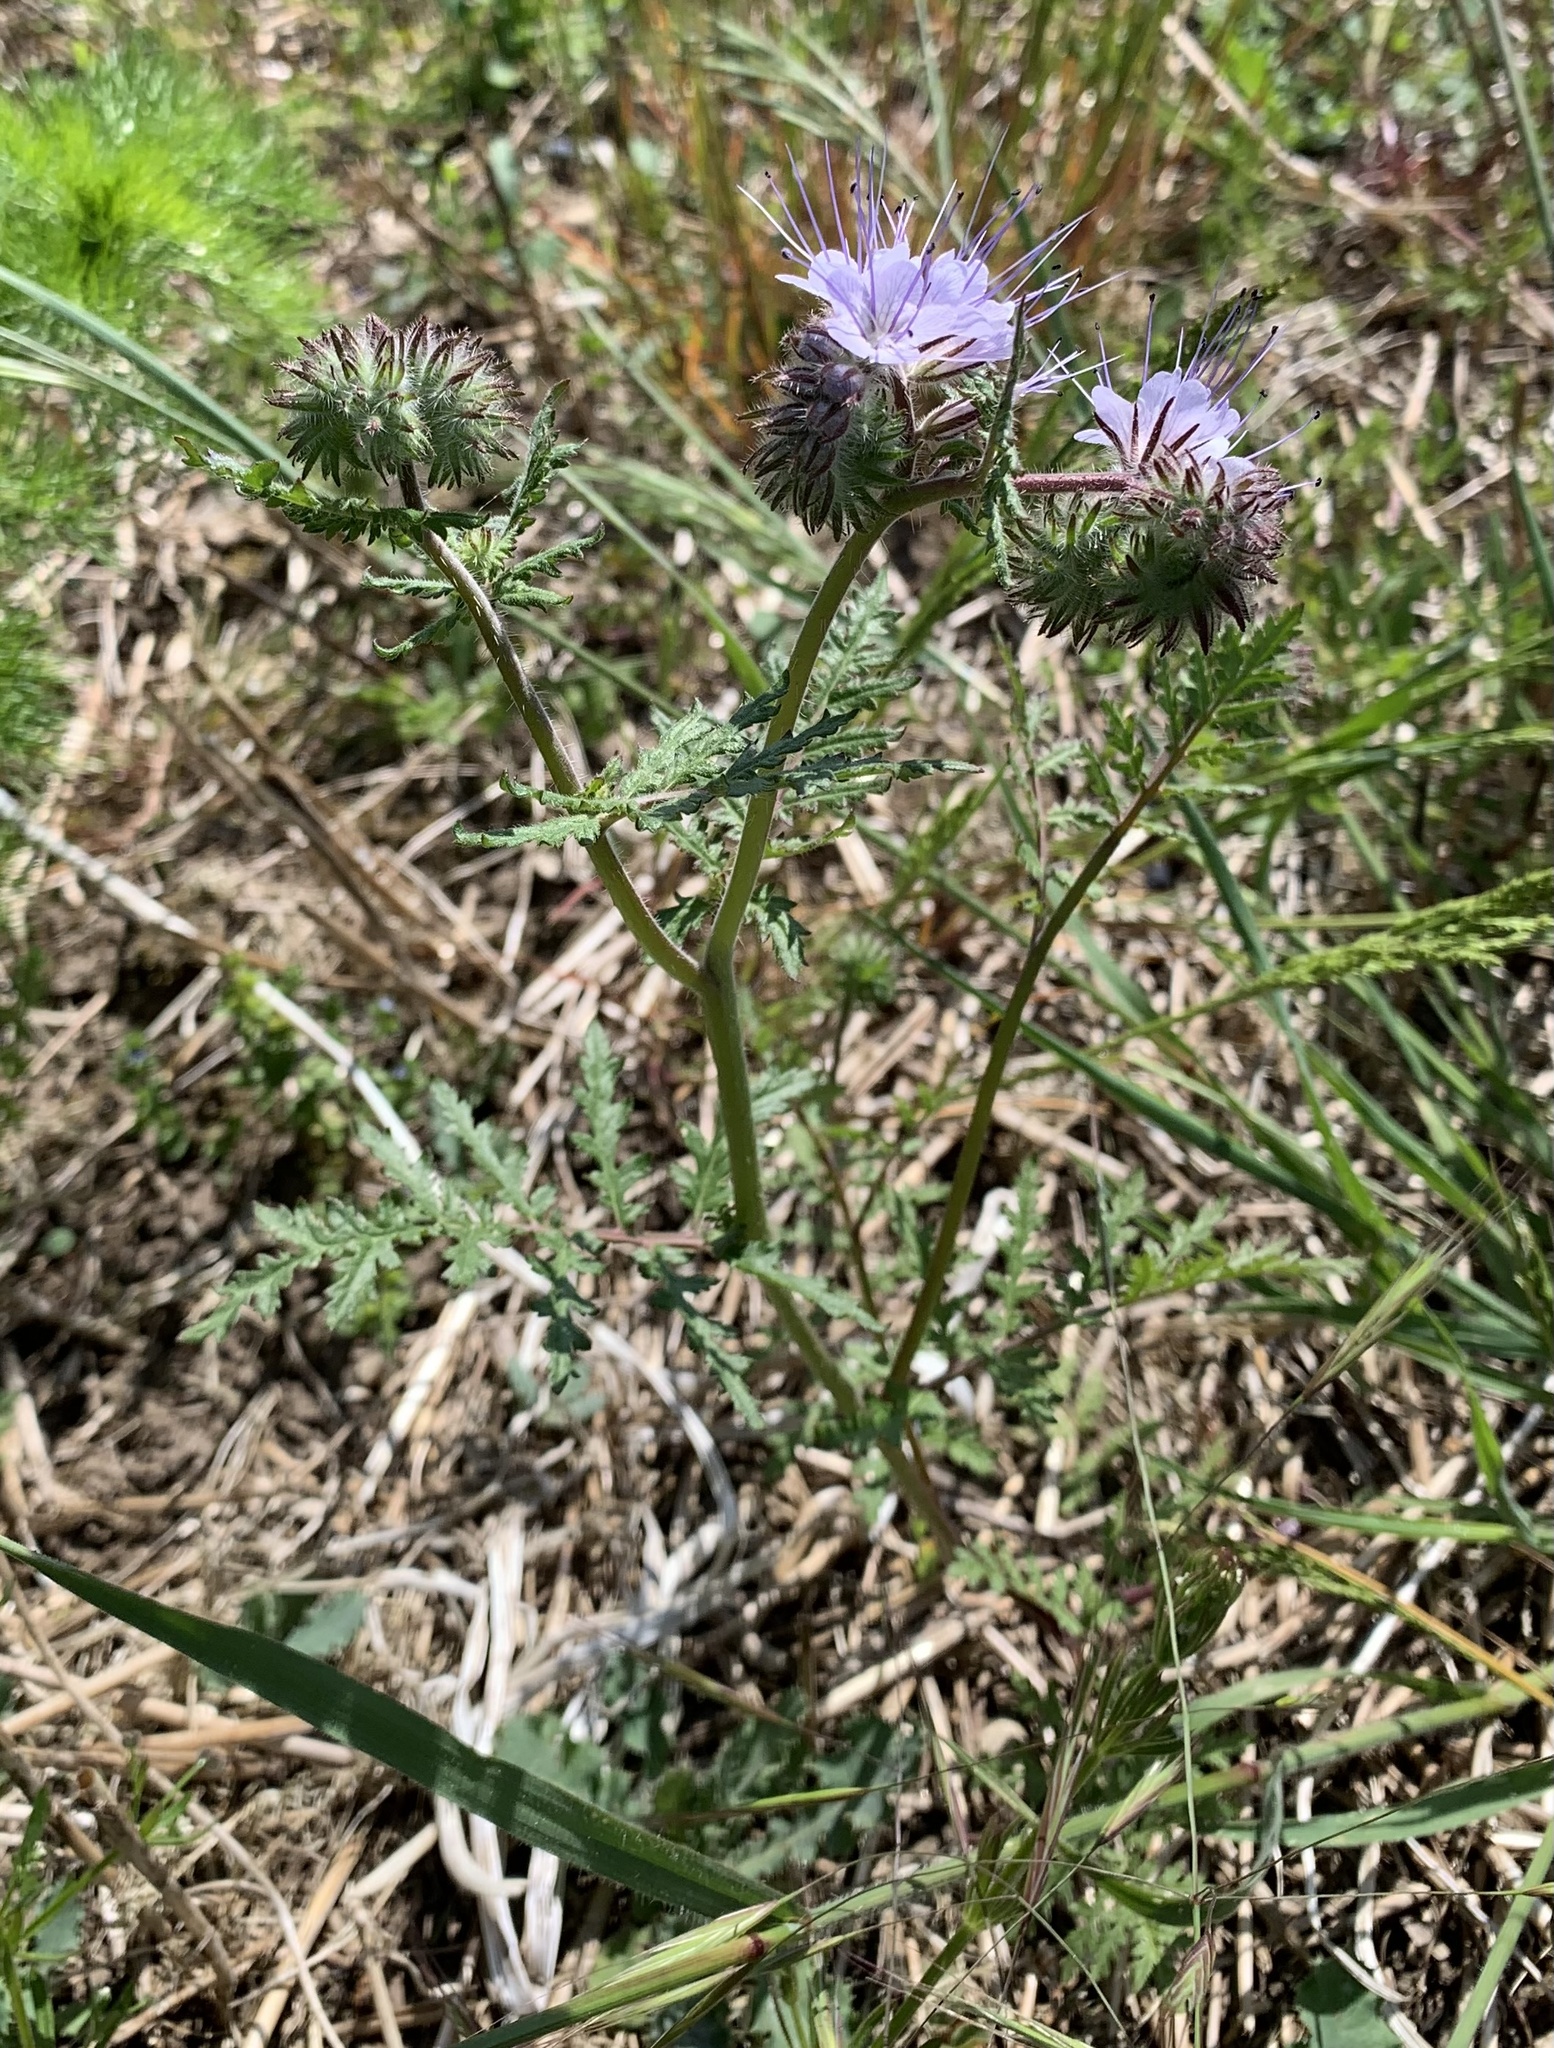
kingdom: Plantae
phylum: Tracheophyta
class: Magnoliopsida
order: Boraginales
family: Hydrophyllaceae
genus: Phacelia
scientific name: Phacelia tanacetifolia
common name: Phacelia
